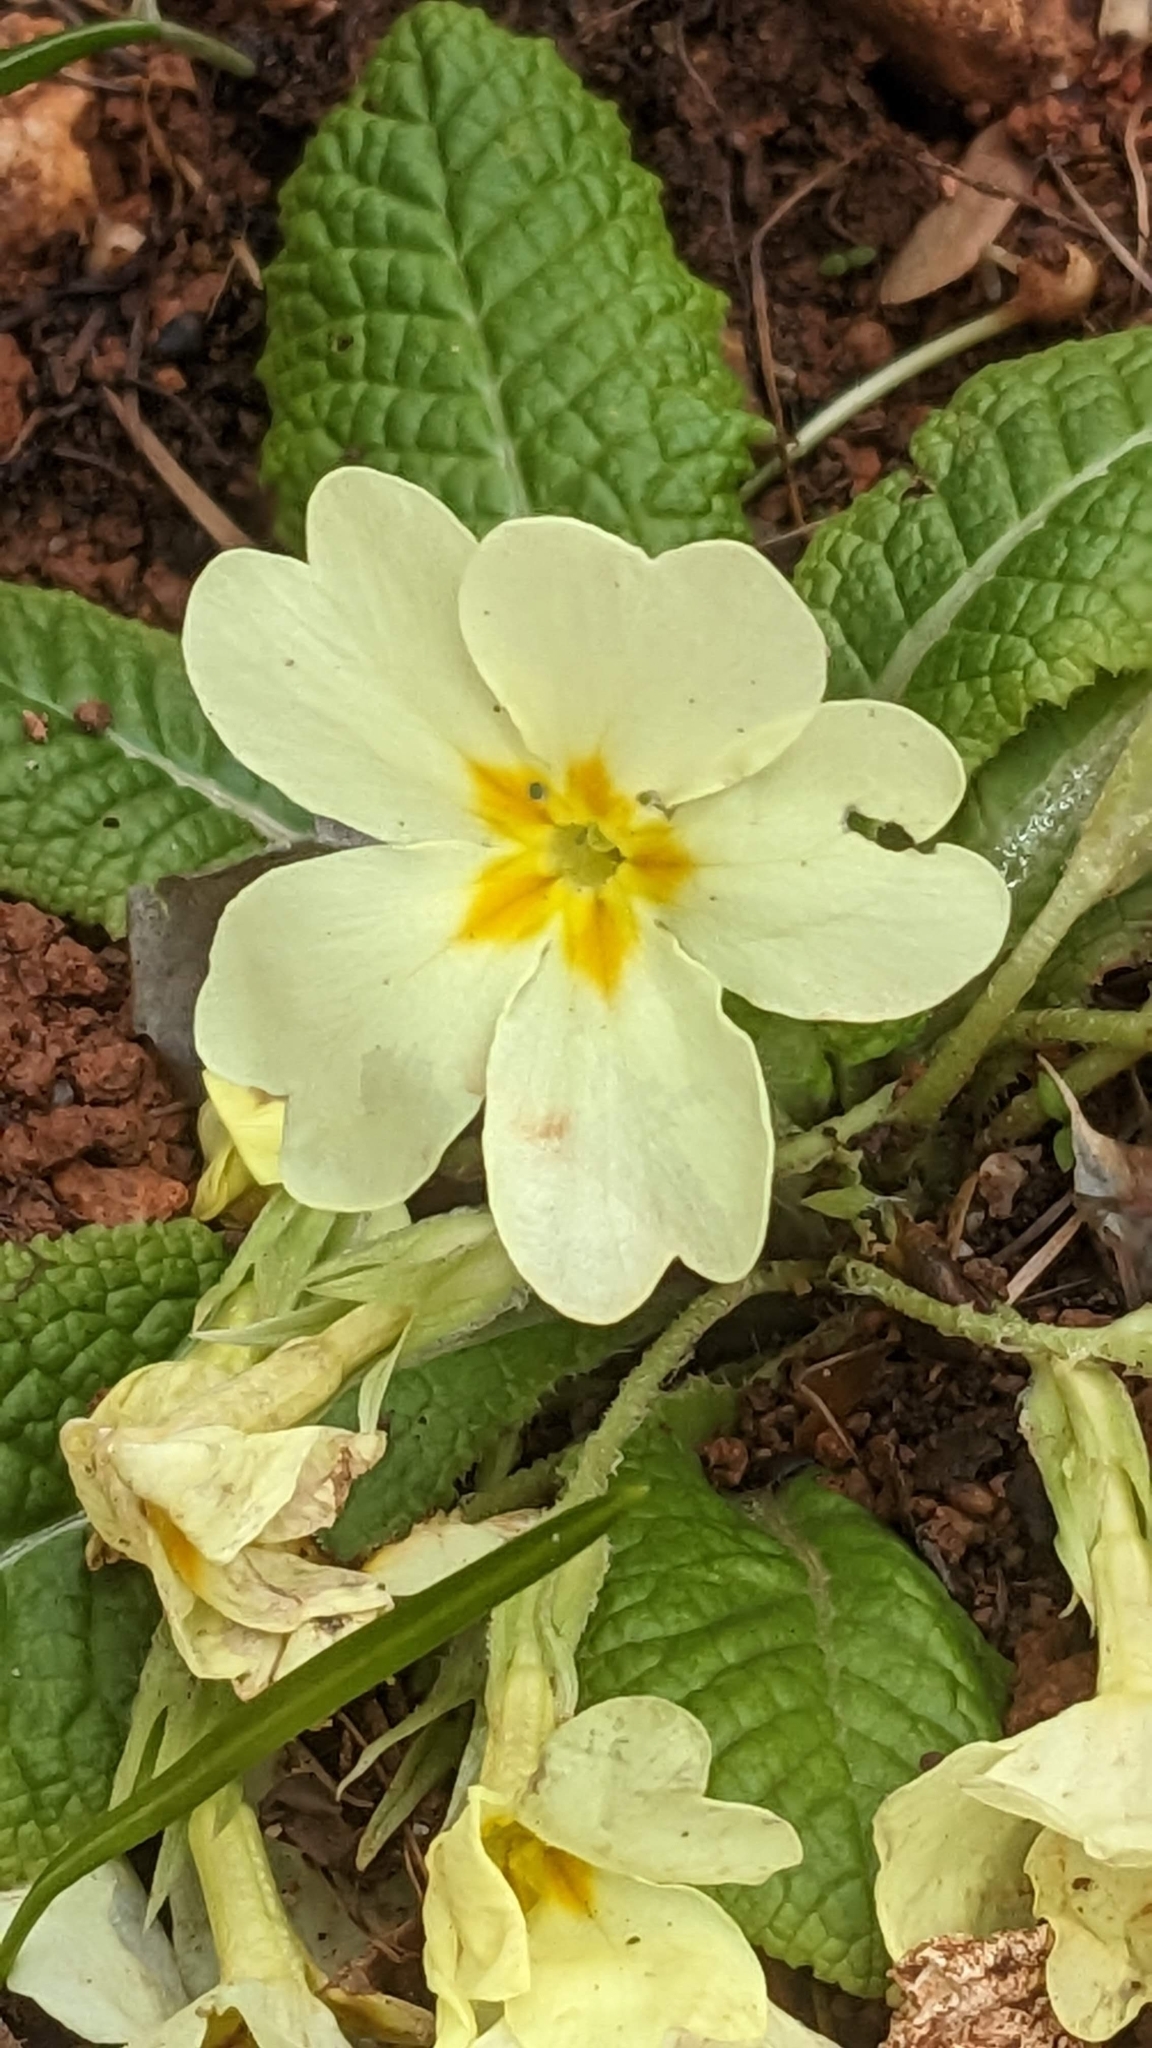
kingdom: Plantae
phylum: Tracheophyta
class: Magnoliopsida
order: Ericales
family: Primulaceae
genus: Primula
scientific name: Primula vulgaris
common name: Primrose
